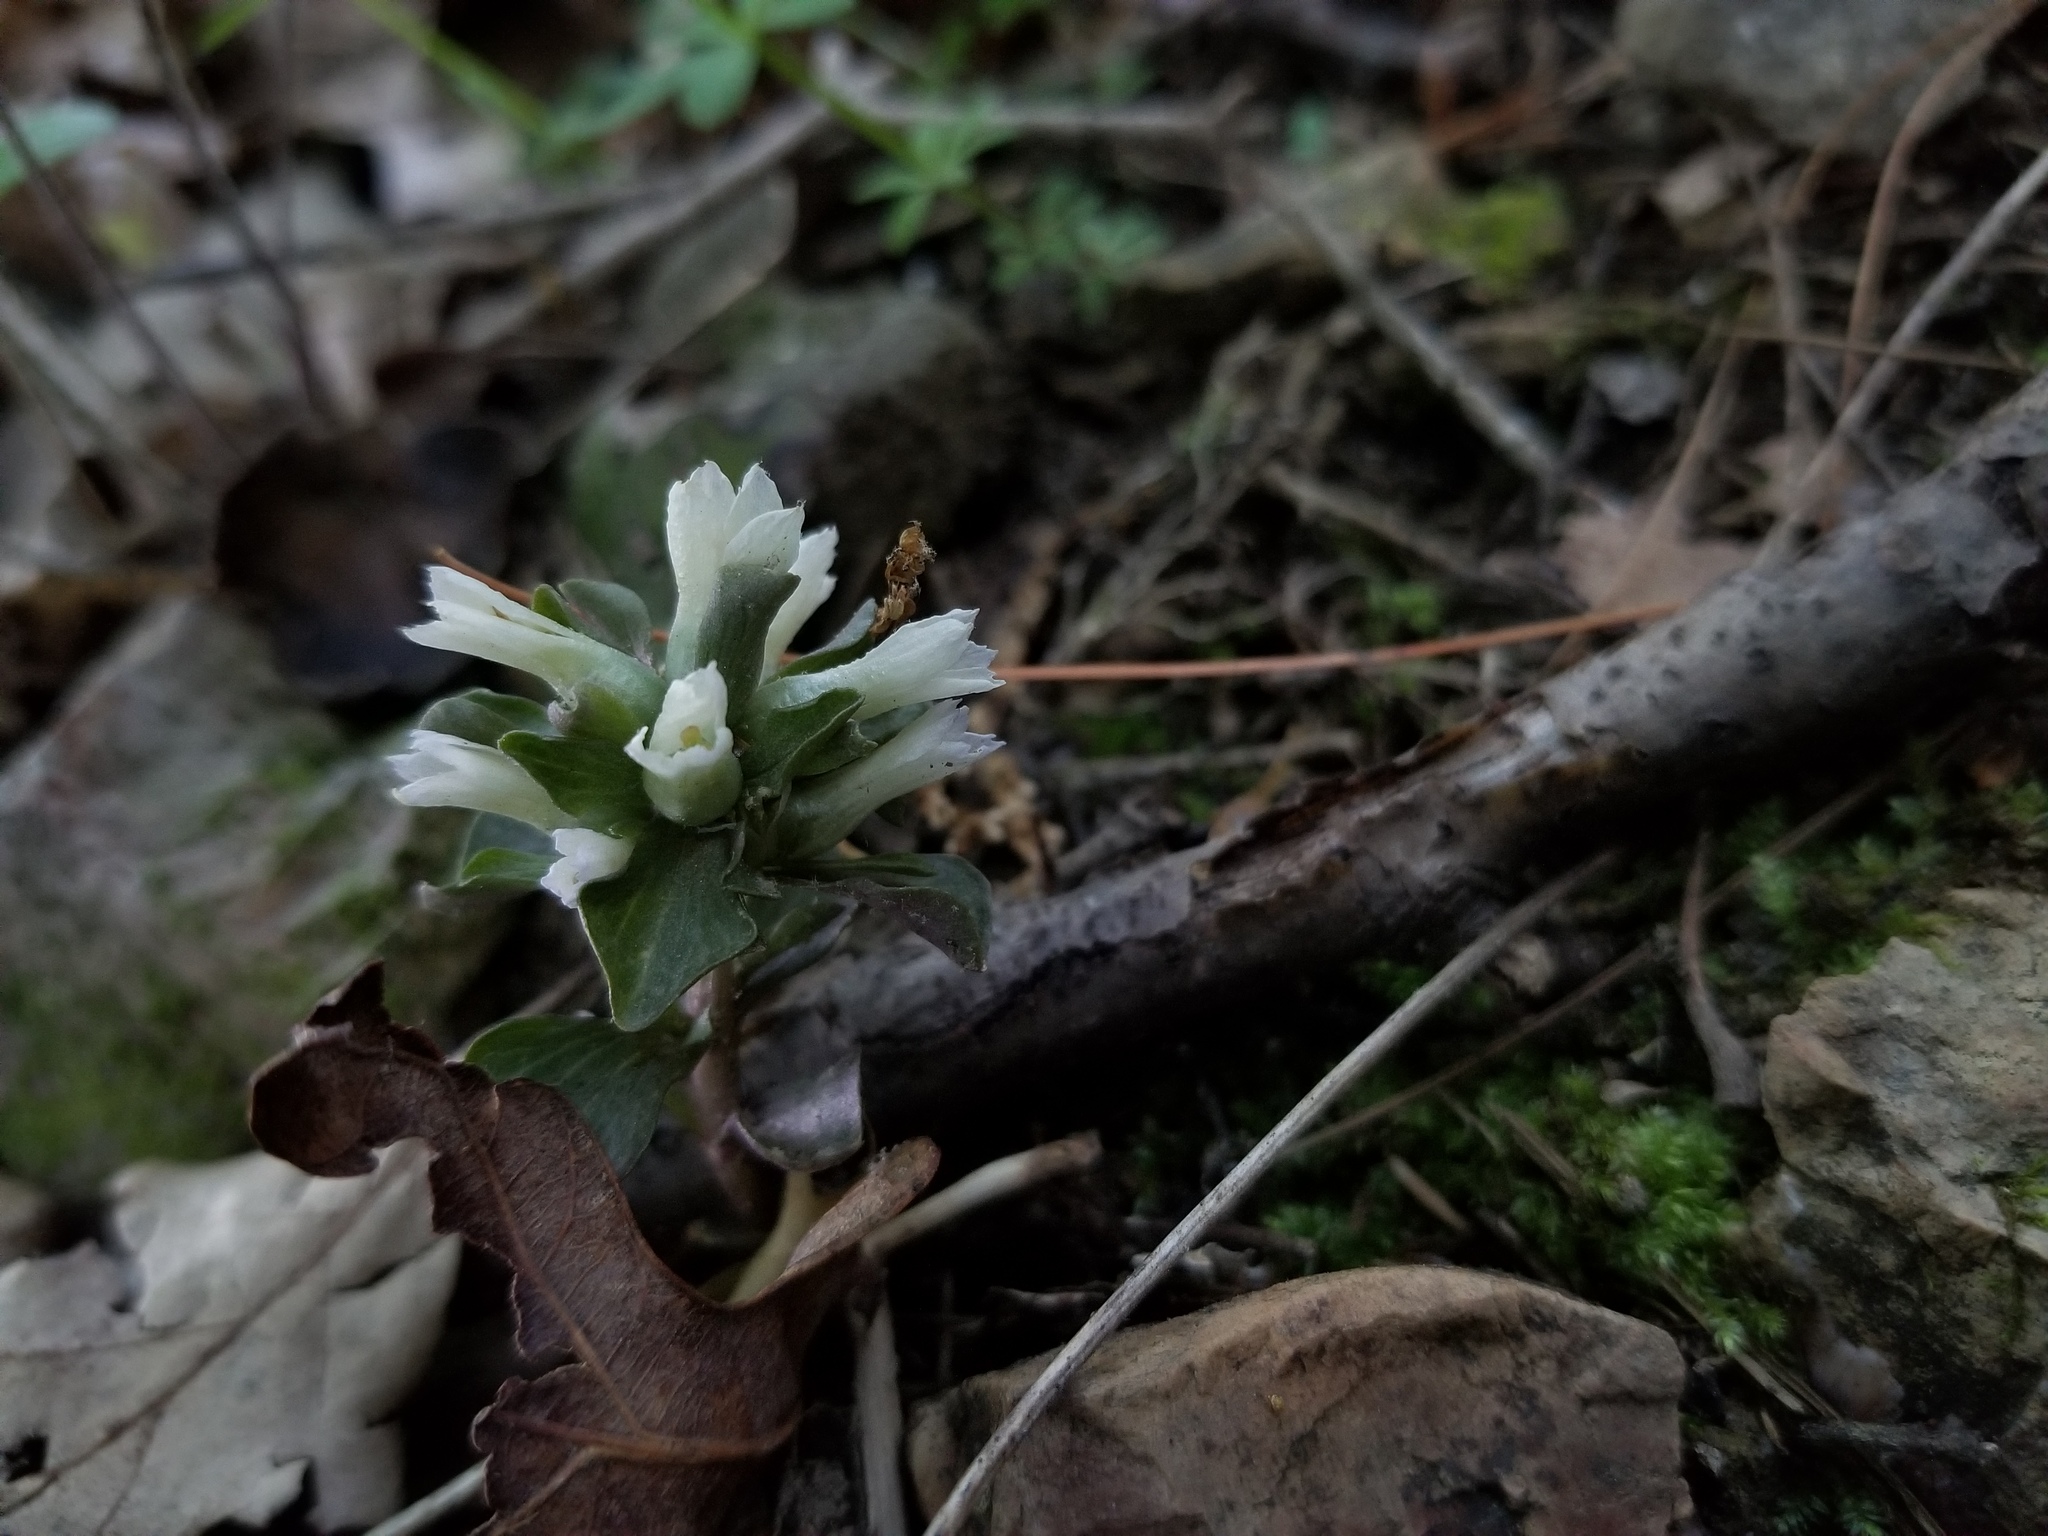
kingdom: Plantae
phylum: Tracheophyta
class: Magnoliopsida
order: Gentianales
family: Gentianaceae
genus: Obolaria
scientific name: Obolaria virginica
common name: Pennywort
